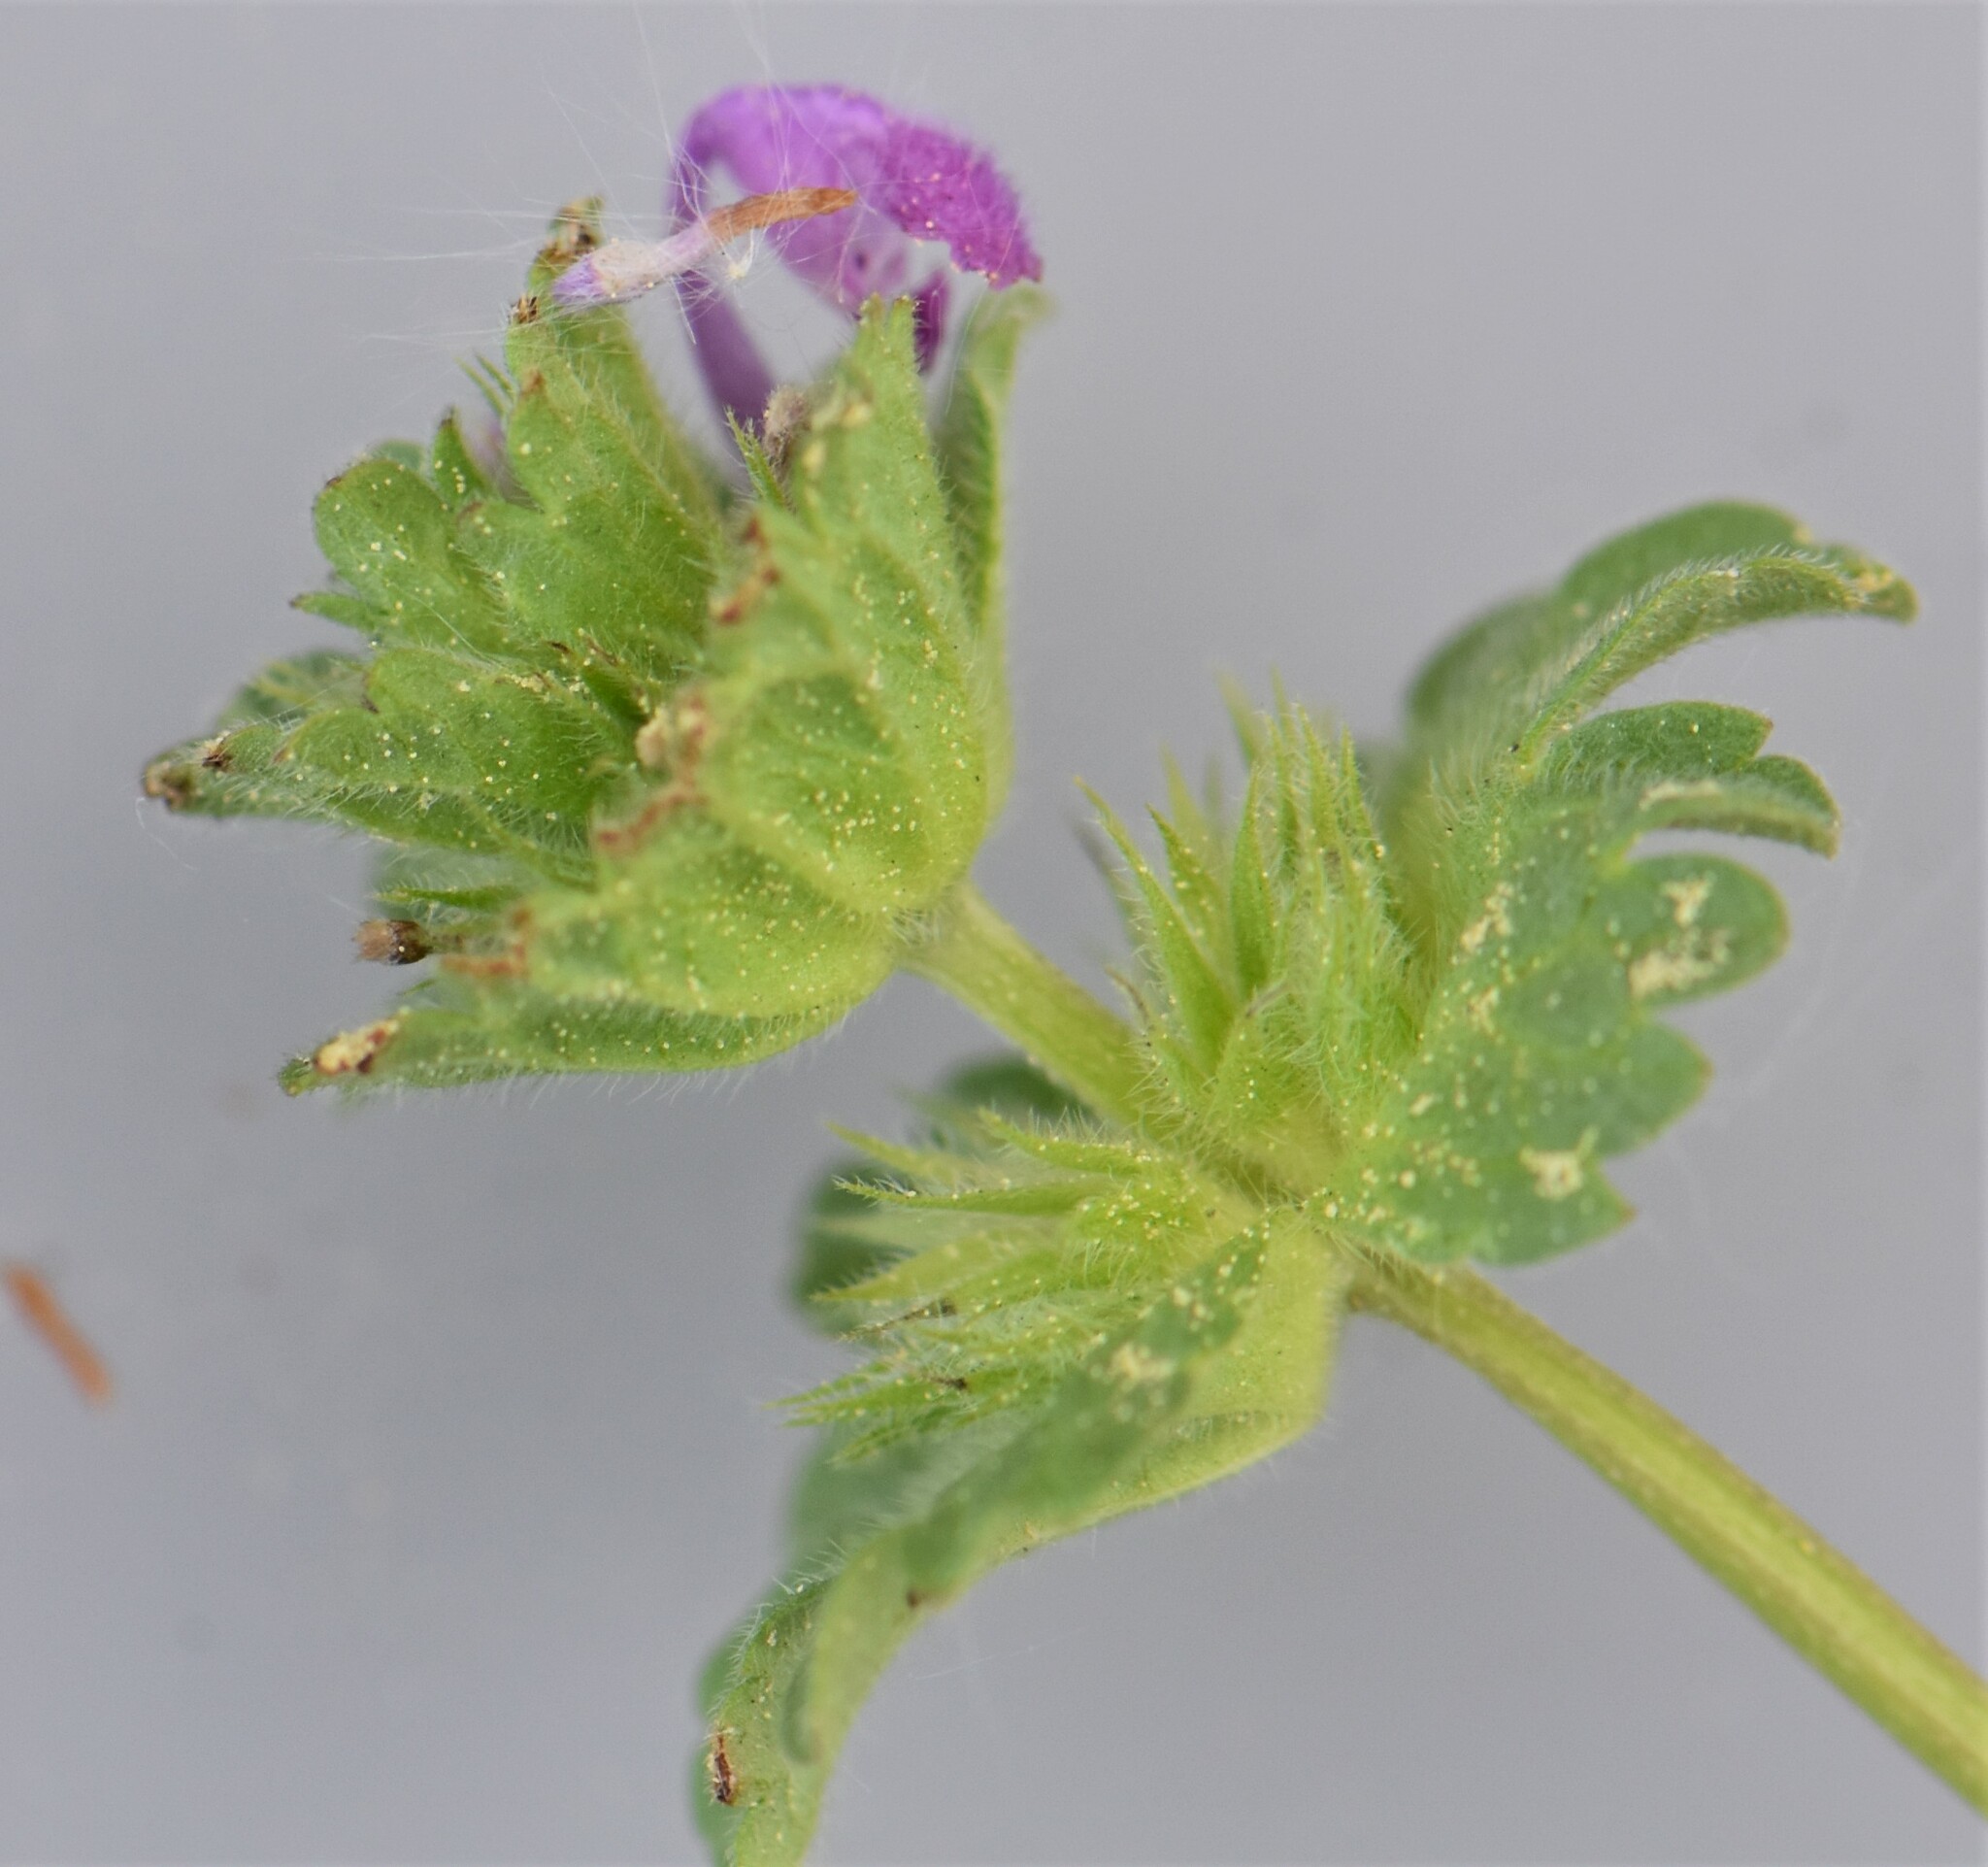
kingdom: Plantae
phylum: Tracheophyta
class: Magnoliopsida
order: Lamiales
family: Lamiaceae
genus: Lamium
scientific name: Lamium amplexicaule
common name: Henbit dead-nettle
